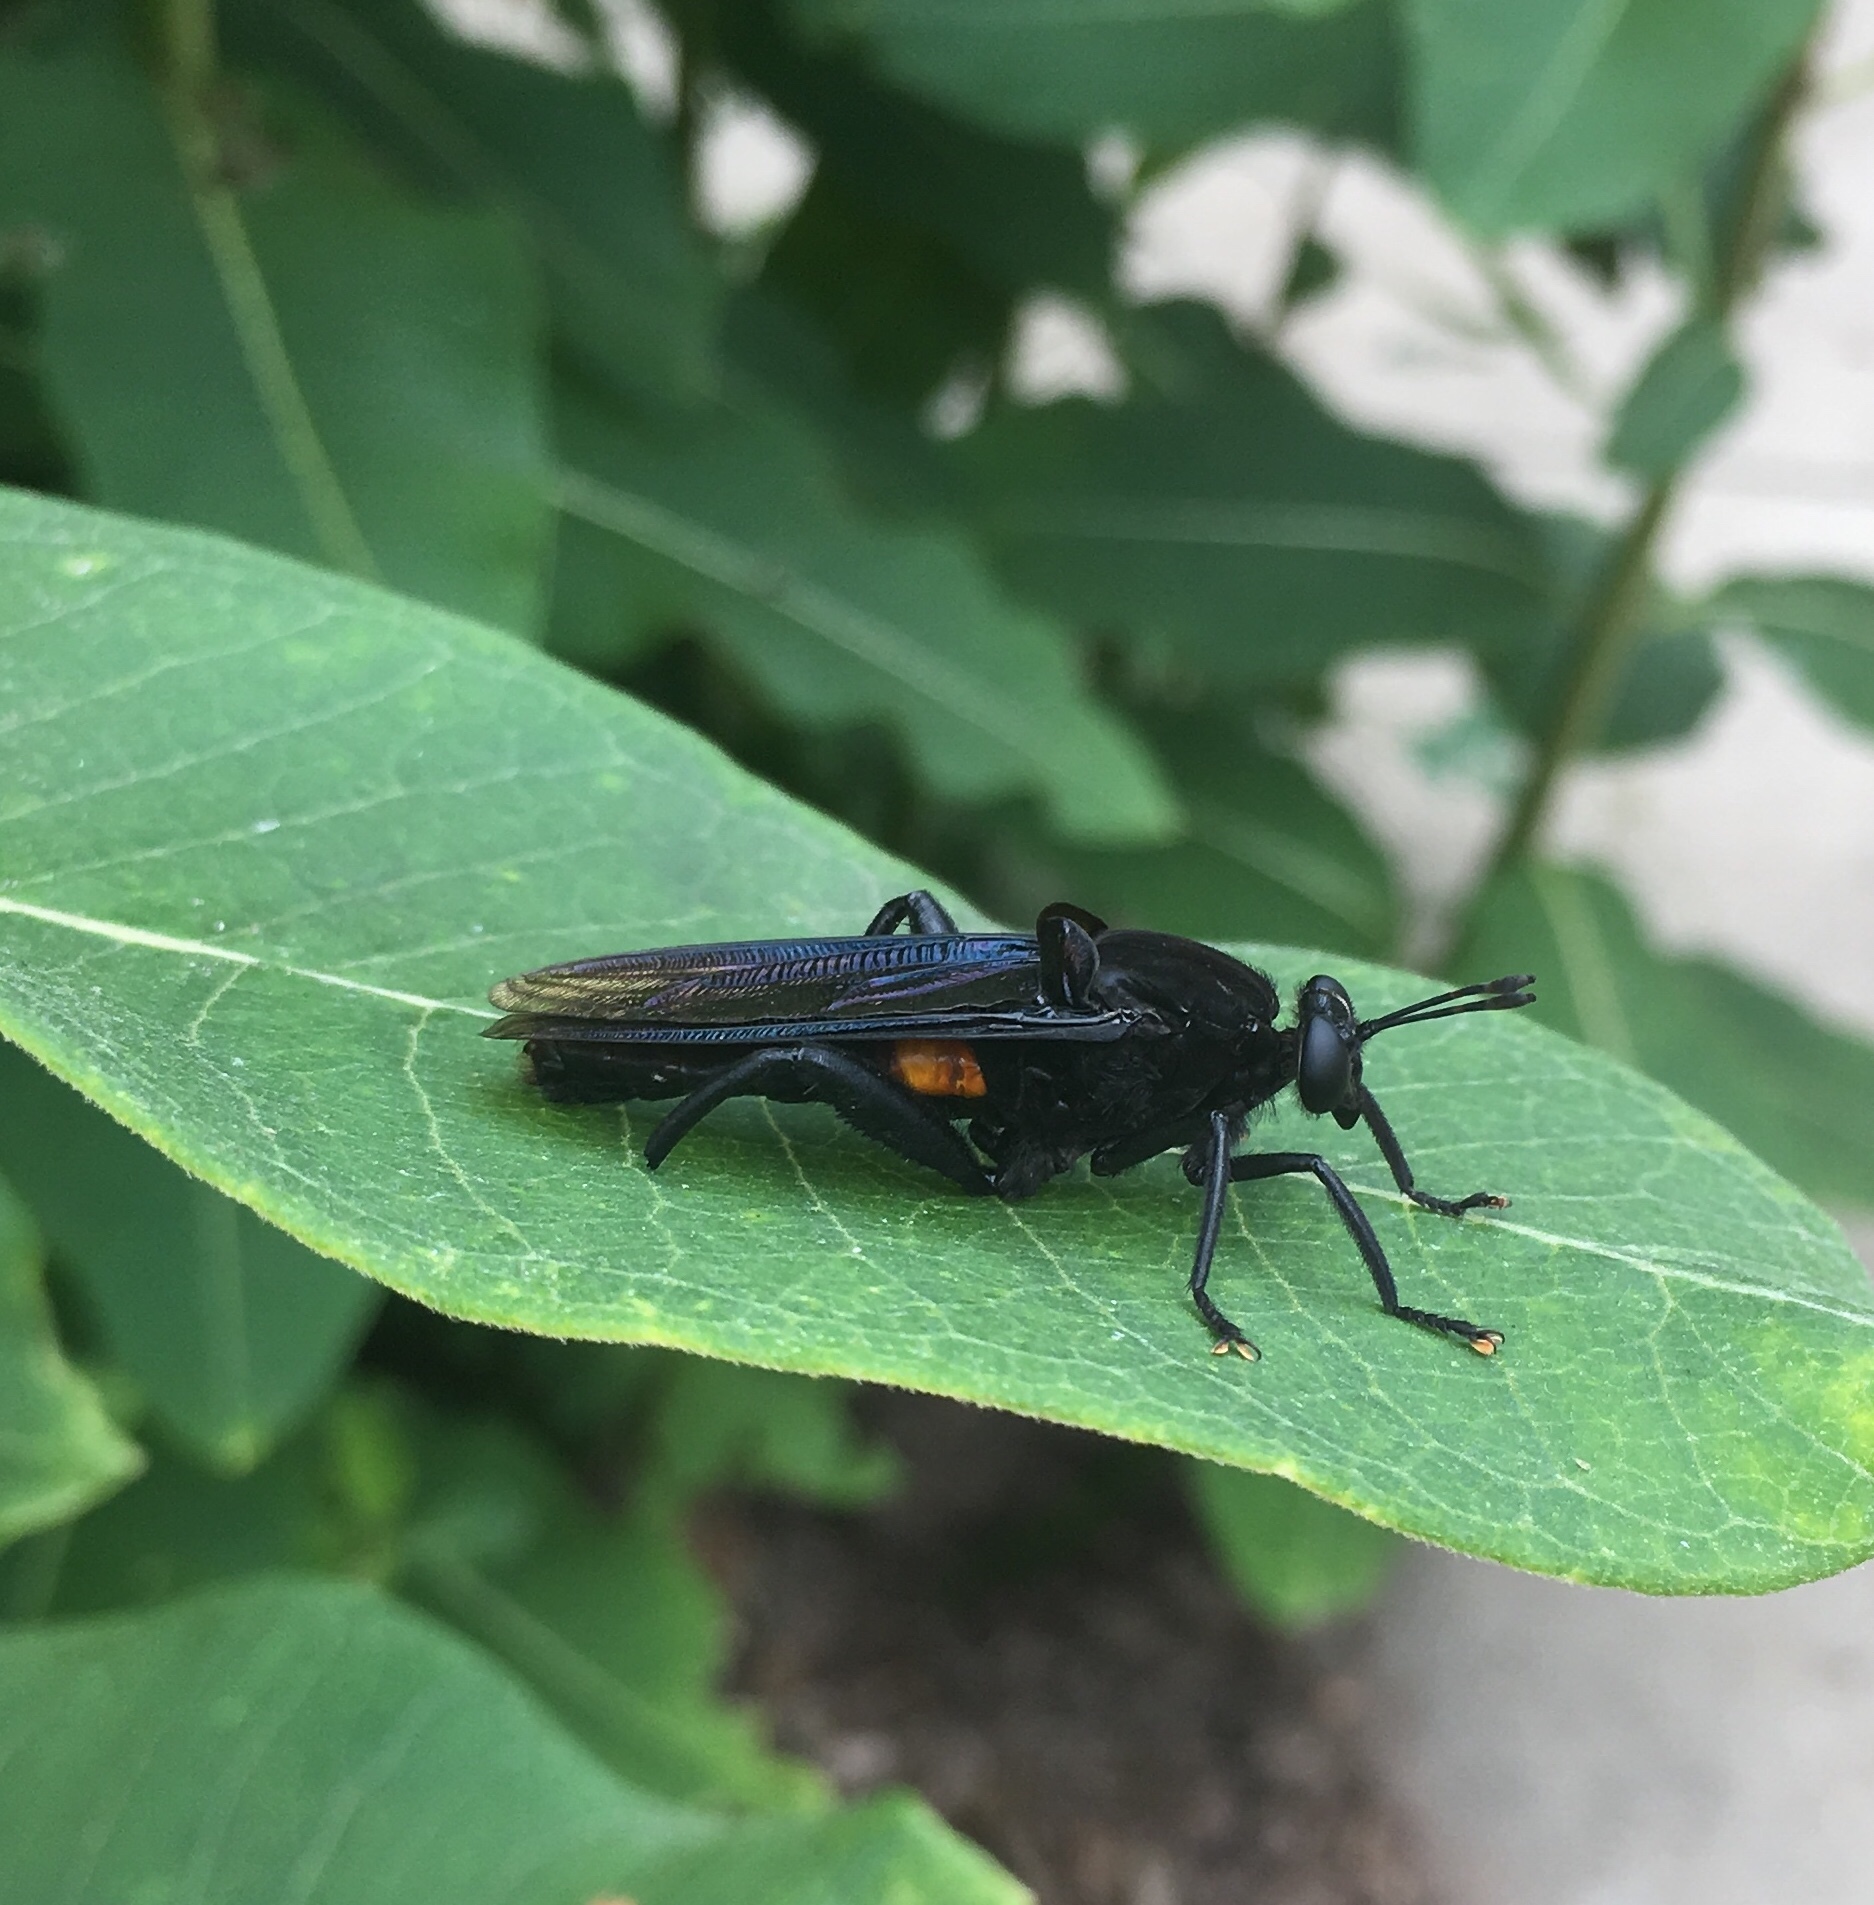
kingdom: Animalia
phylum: Arthropoda
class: Insecta
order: Diptera
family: Mydidae
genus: Mydas
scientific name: Mydas clavatus
